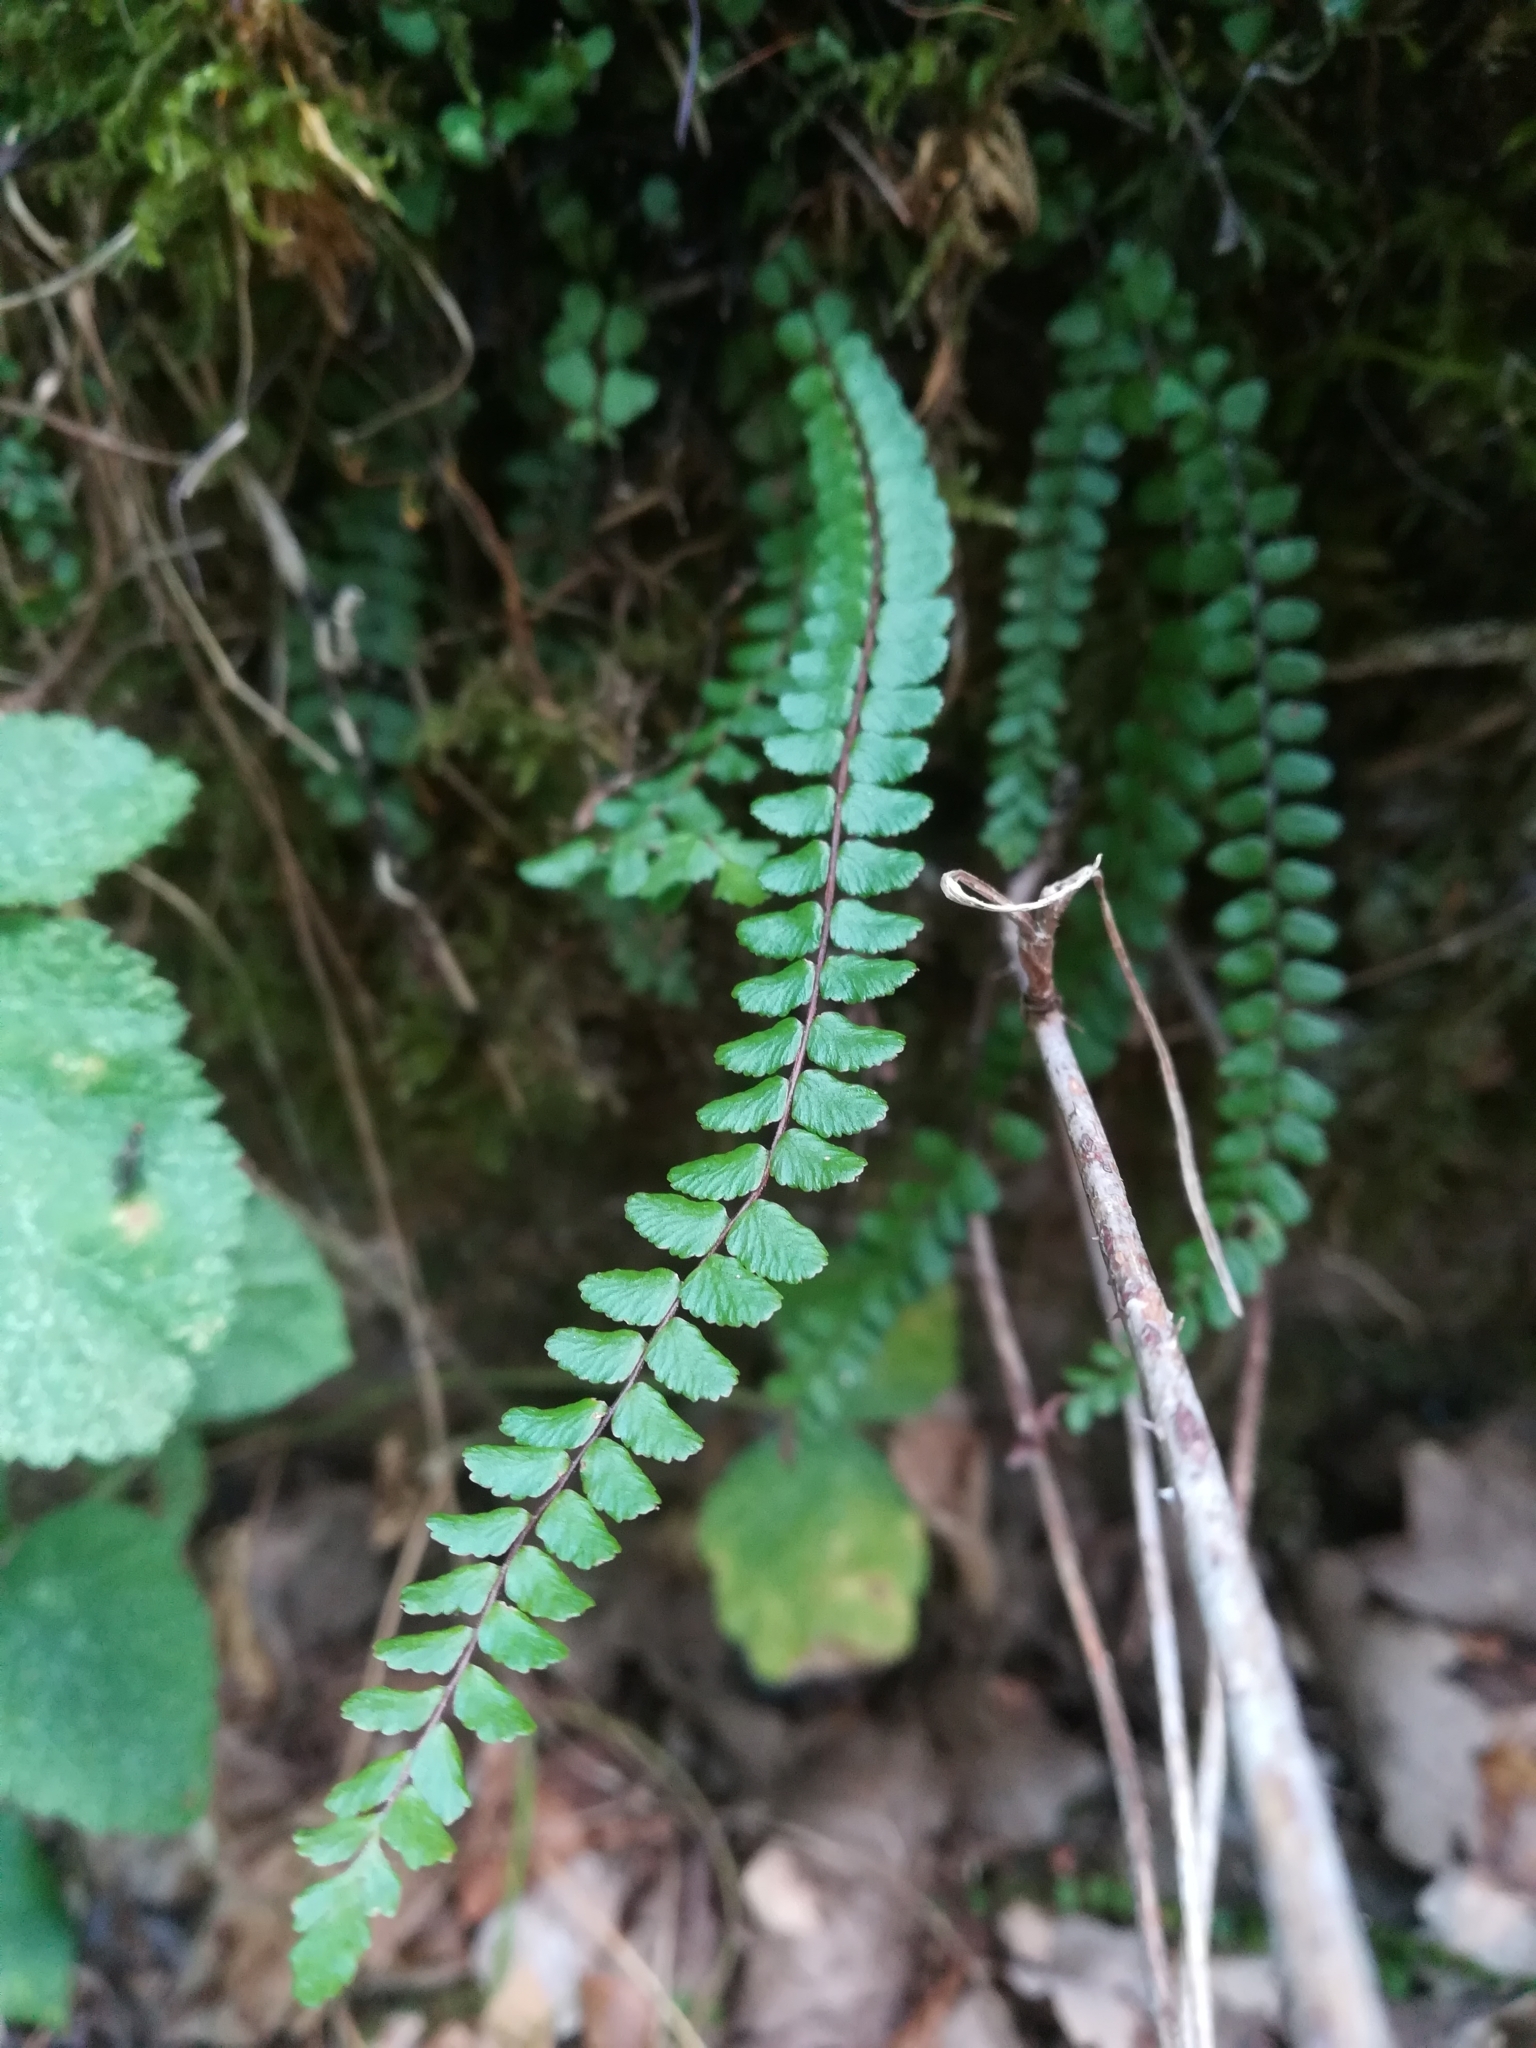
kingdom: Plantae
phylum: Tracheophyta
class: Polypodiopsida
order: Polypodiales
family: Aspleniaceae
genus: Asplenium
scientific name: Asplenium trichomanes
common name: Maidenhair spleenwort
